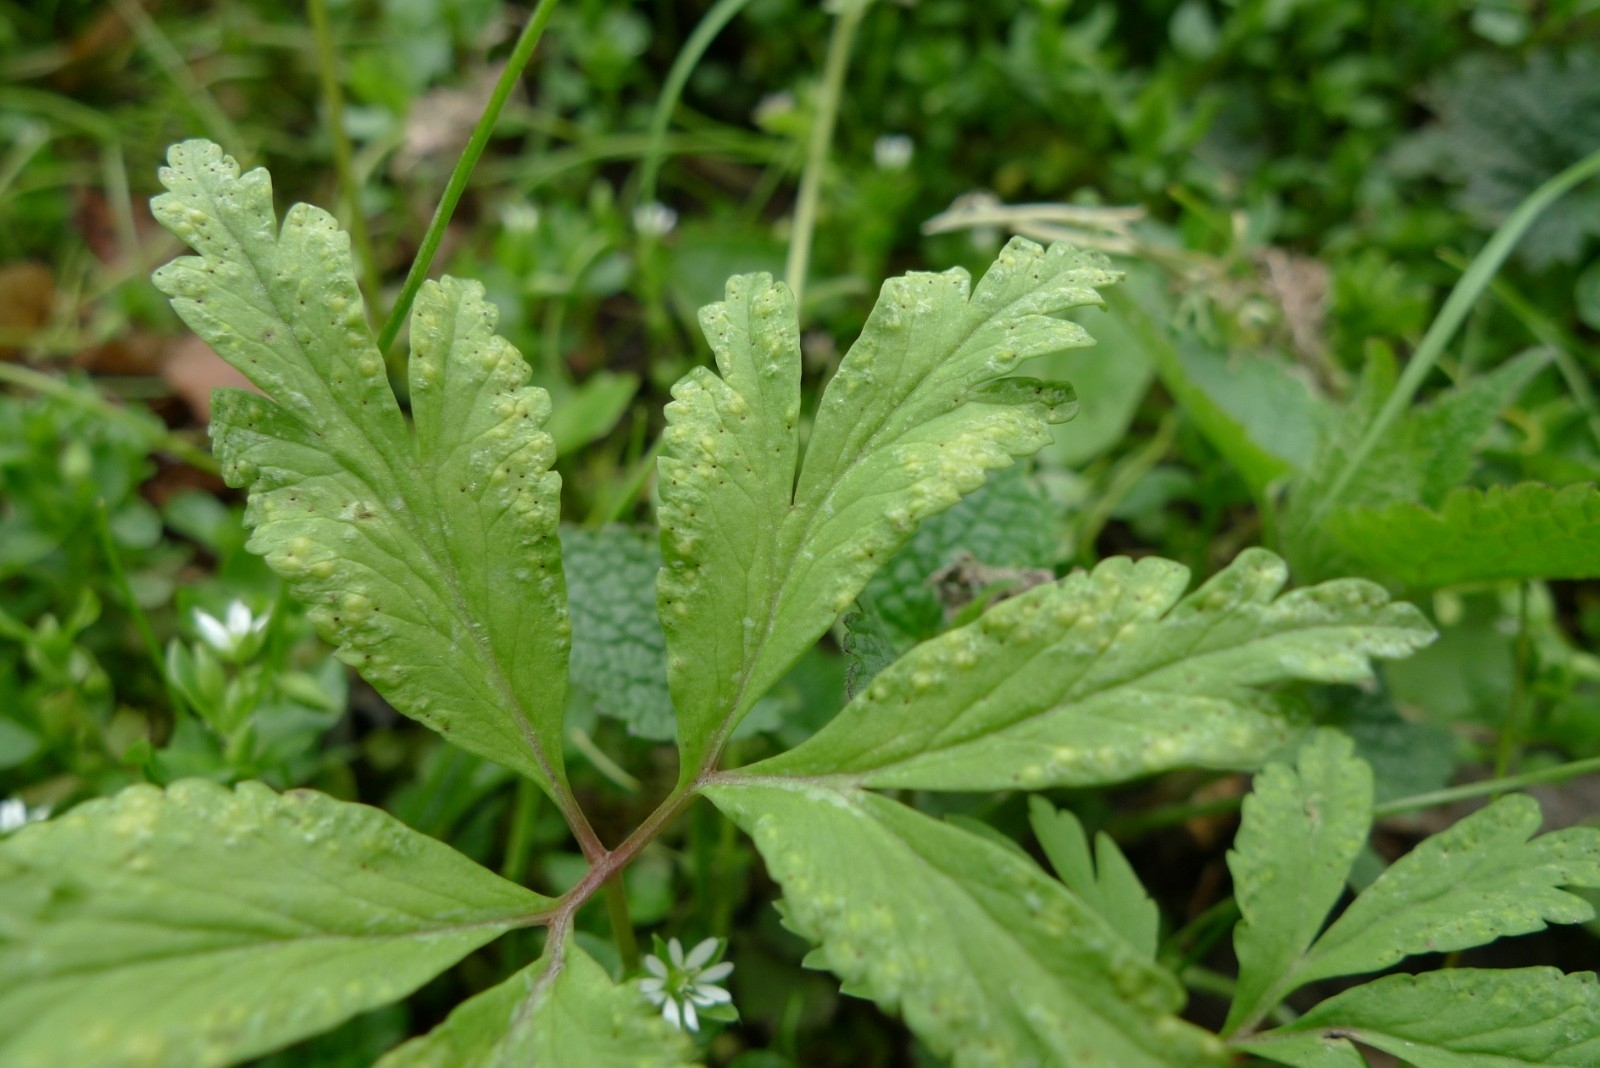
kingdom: Fungi
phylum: Basidiomycota
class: Pucciniomycetes
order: Pucciniales
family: Tranzscheliaceae
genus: Tranzschelia
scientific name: Tranzschelia pruni-spinosae
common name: Blackthorn rust
